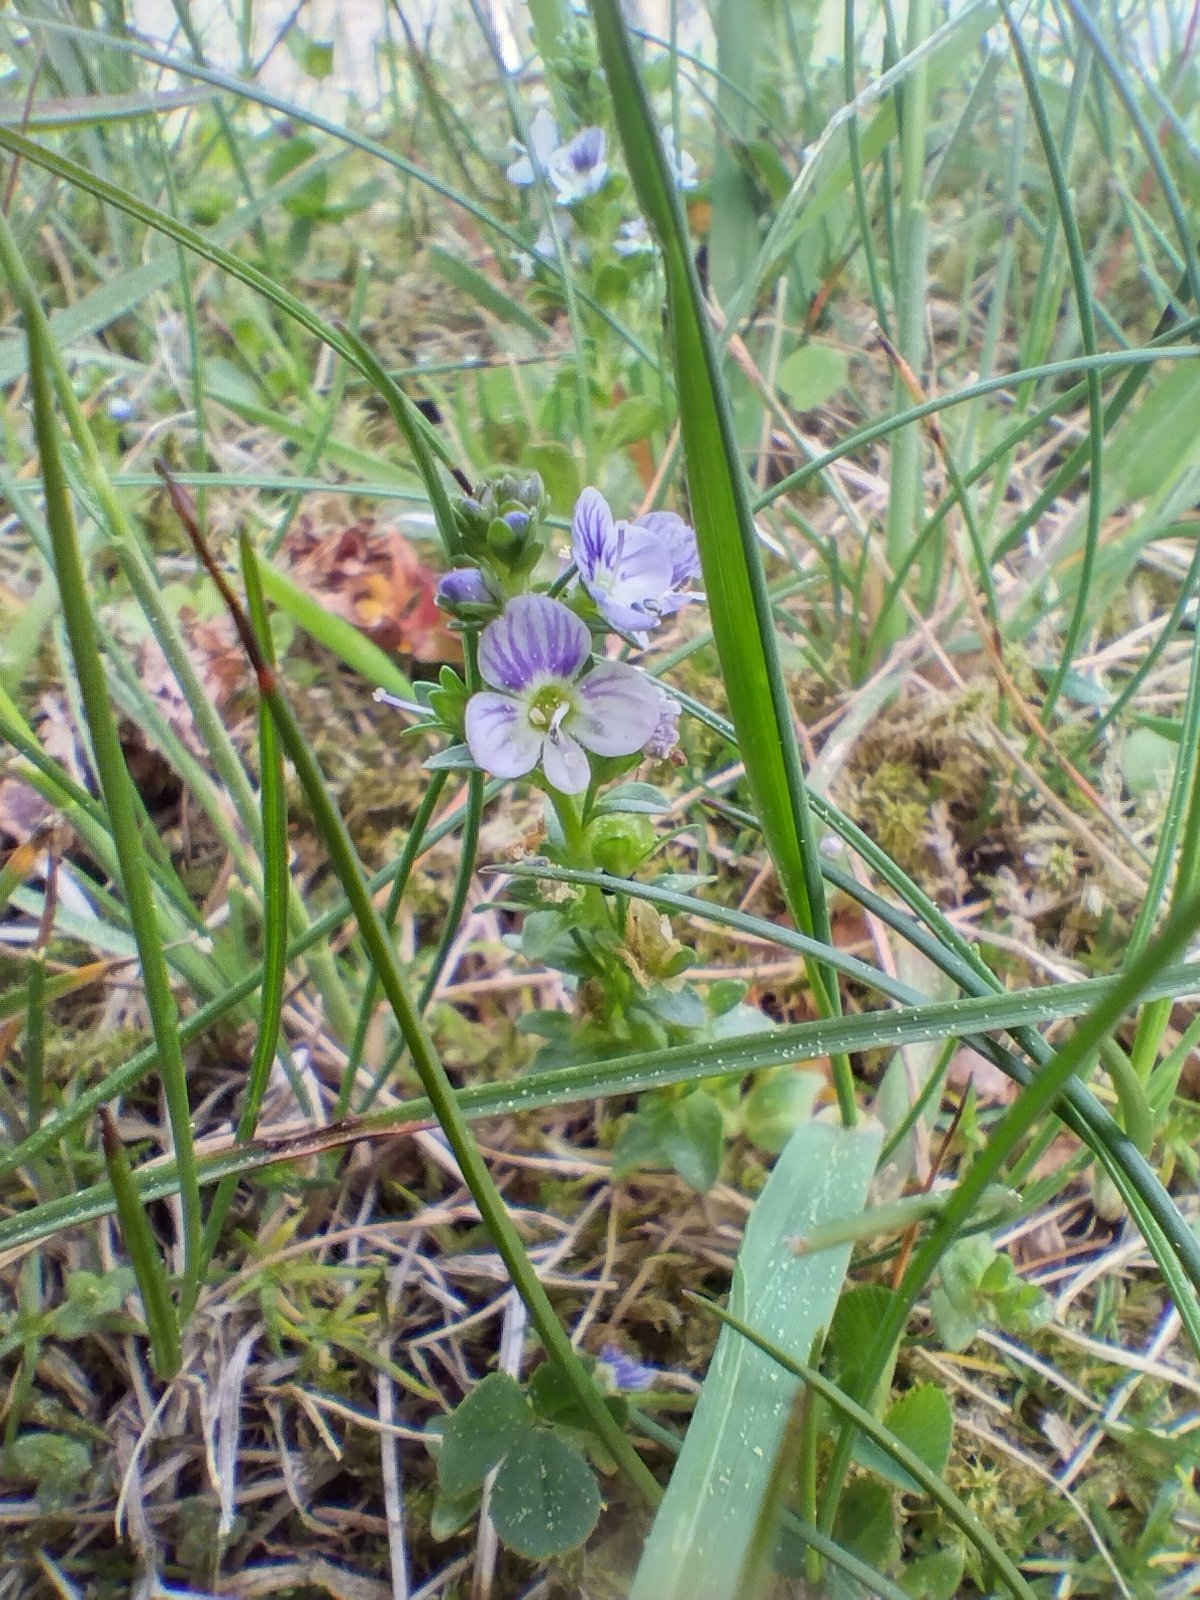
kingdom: Plantae
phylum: Tracheophyta
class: Magnoliopsida
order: Lamiales
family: Plantaginaceae
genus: Veronica
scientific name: Veronica serpyllifolia
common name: Thyme-leaved speedwell
